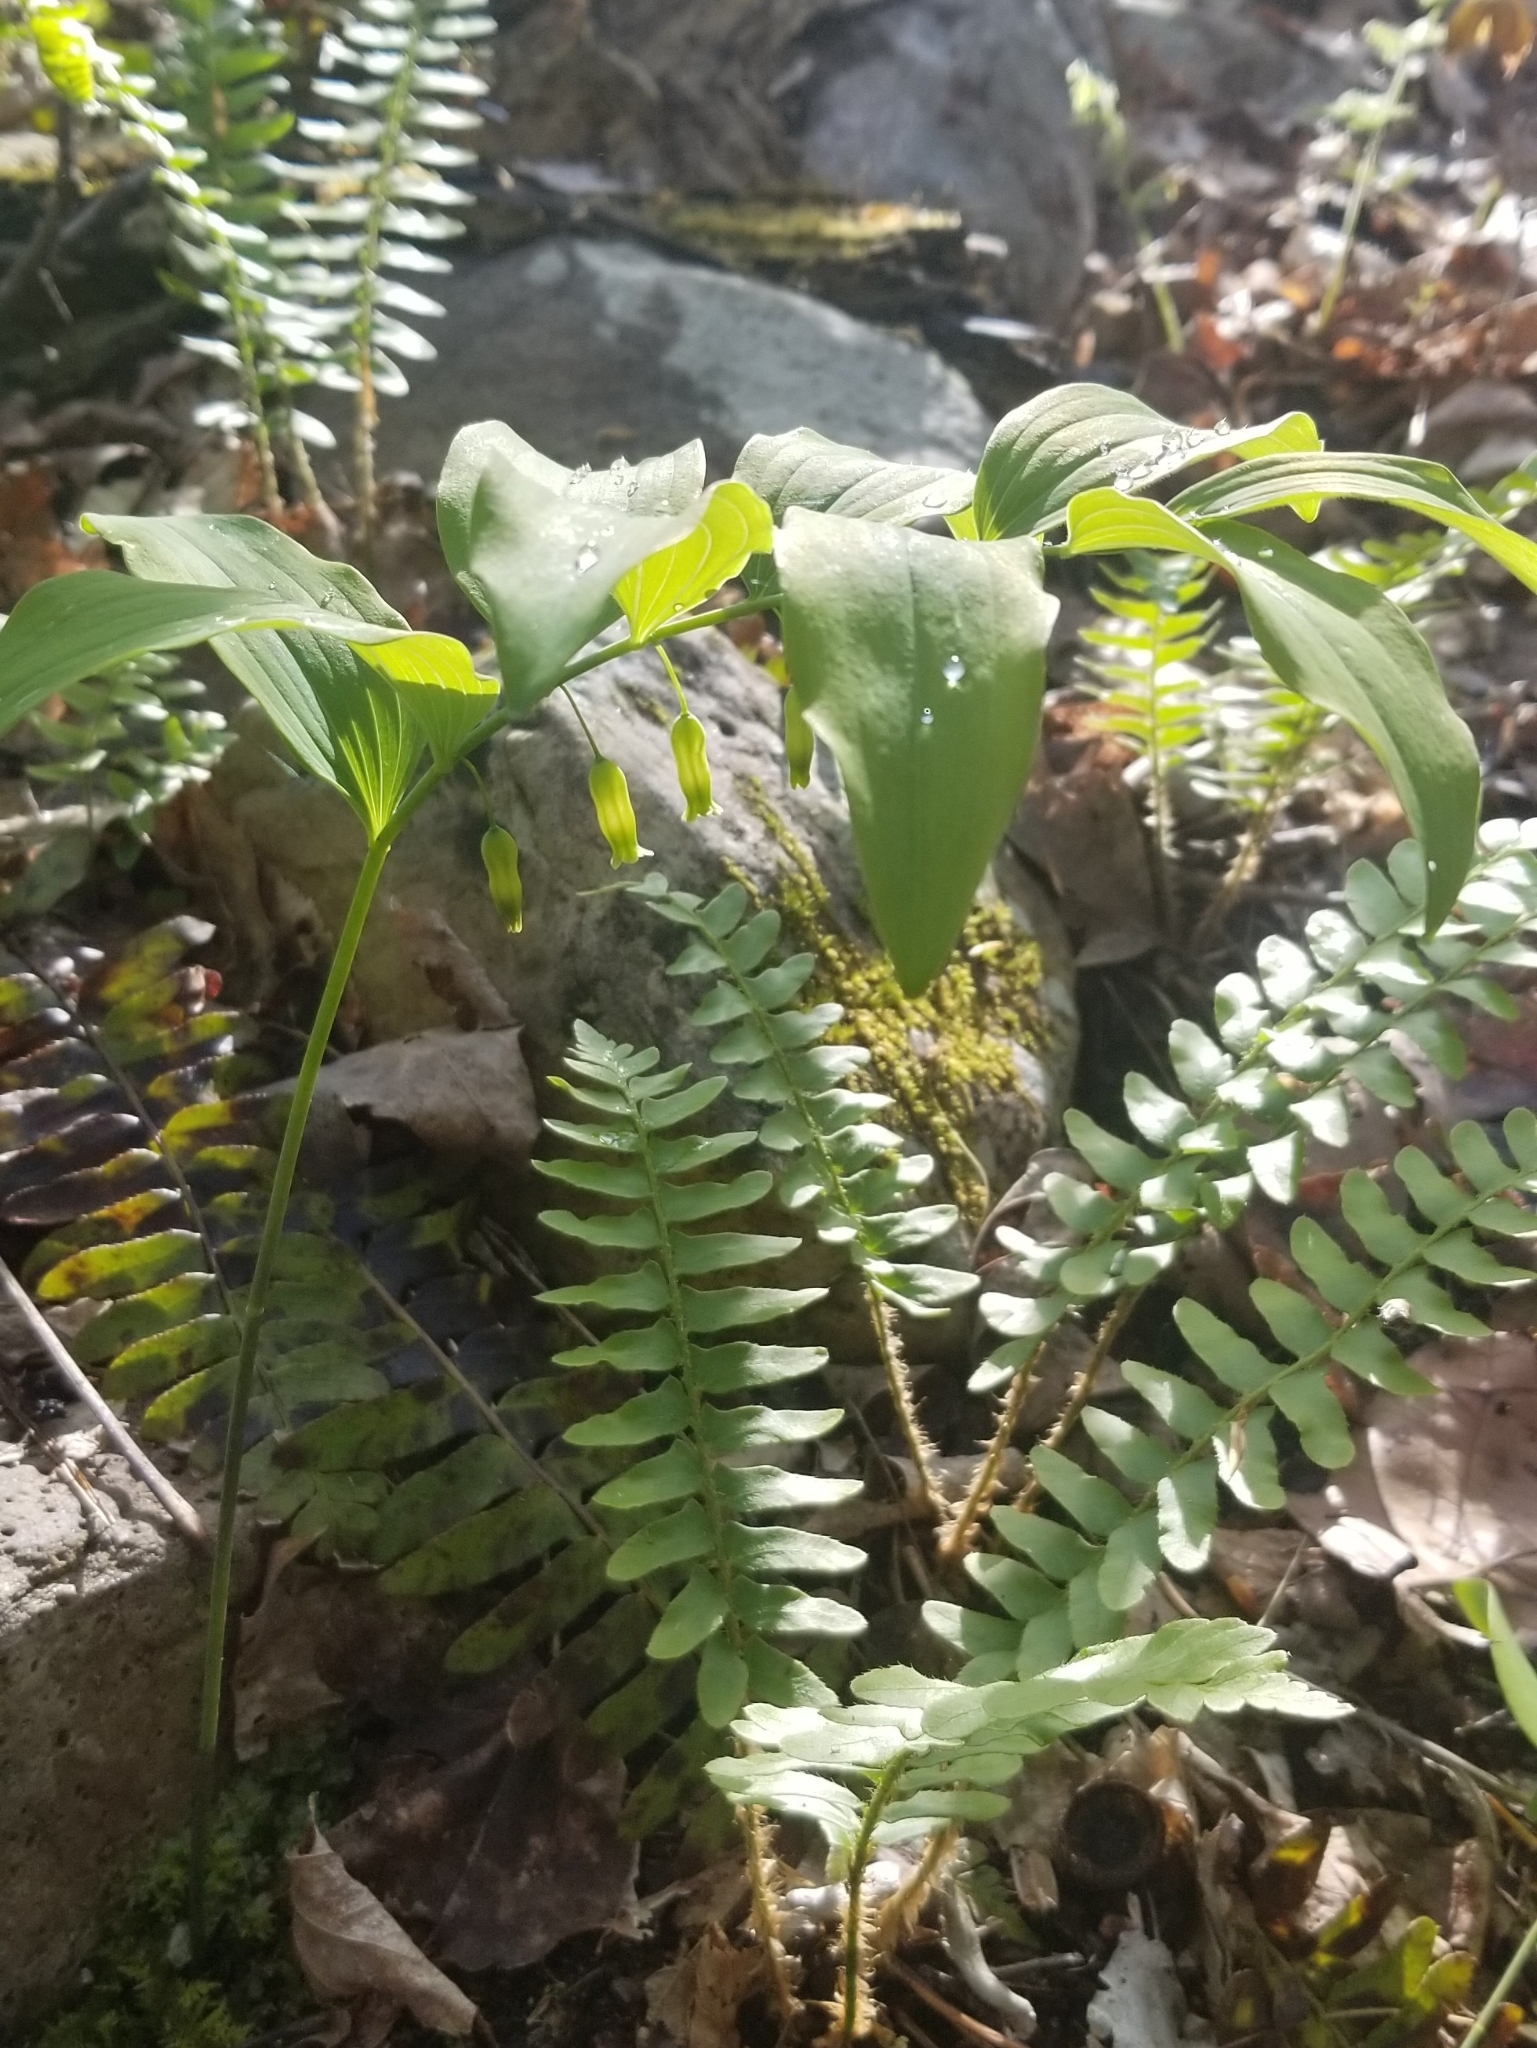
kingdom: Plantae
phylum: Tracheophyta
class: Liliopsida
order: Asparagales
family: Asparagaceae
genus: Polygonatum
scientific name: Polygonatum pubescens
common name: Downy solomon's seal
